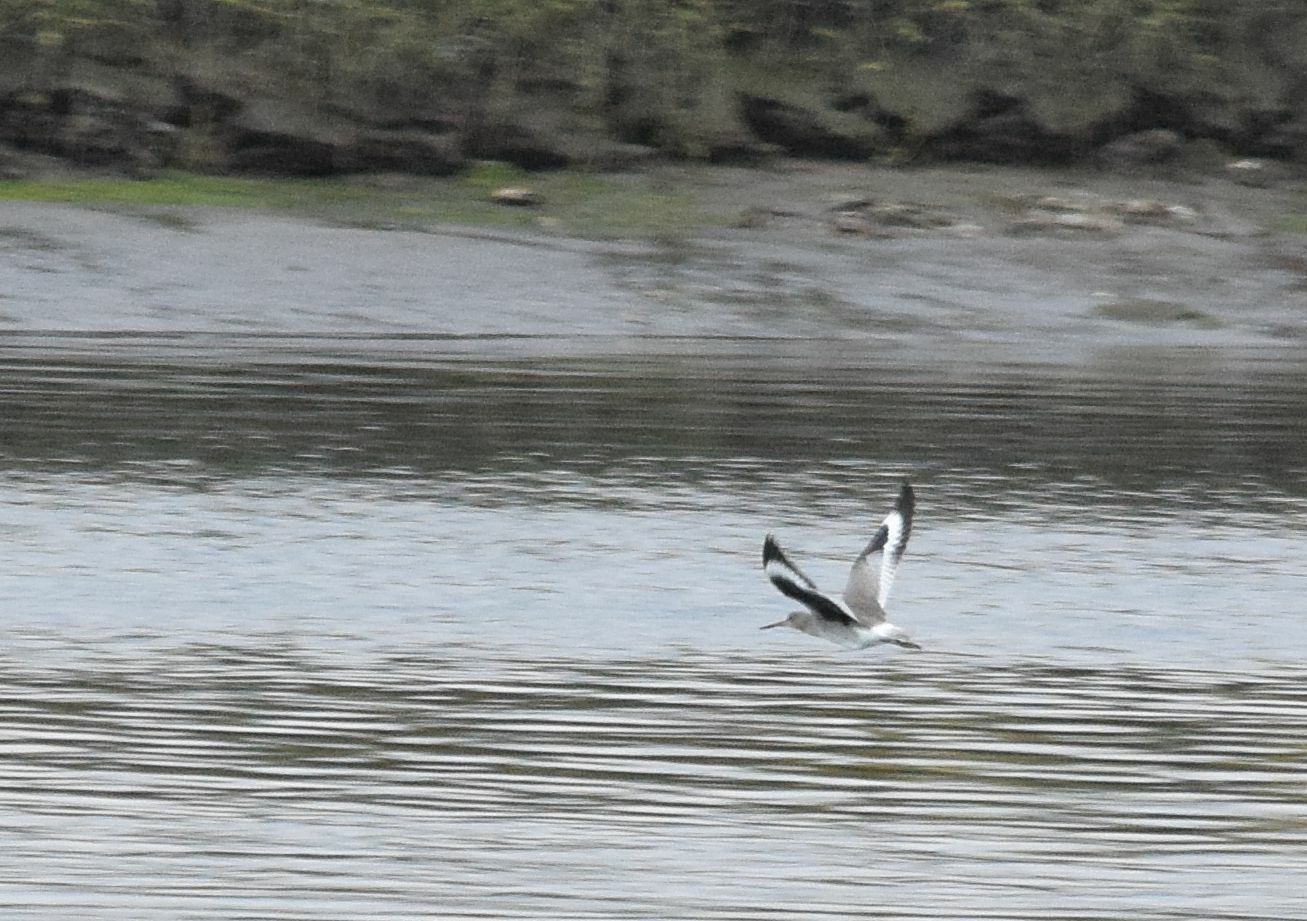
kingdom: Animalia
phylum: Chordata
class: Aves
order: Charadriiformes
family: Scolopacidae
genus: Tringa
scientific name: Tringa semipalmata
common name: Willet
